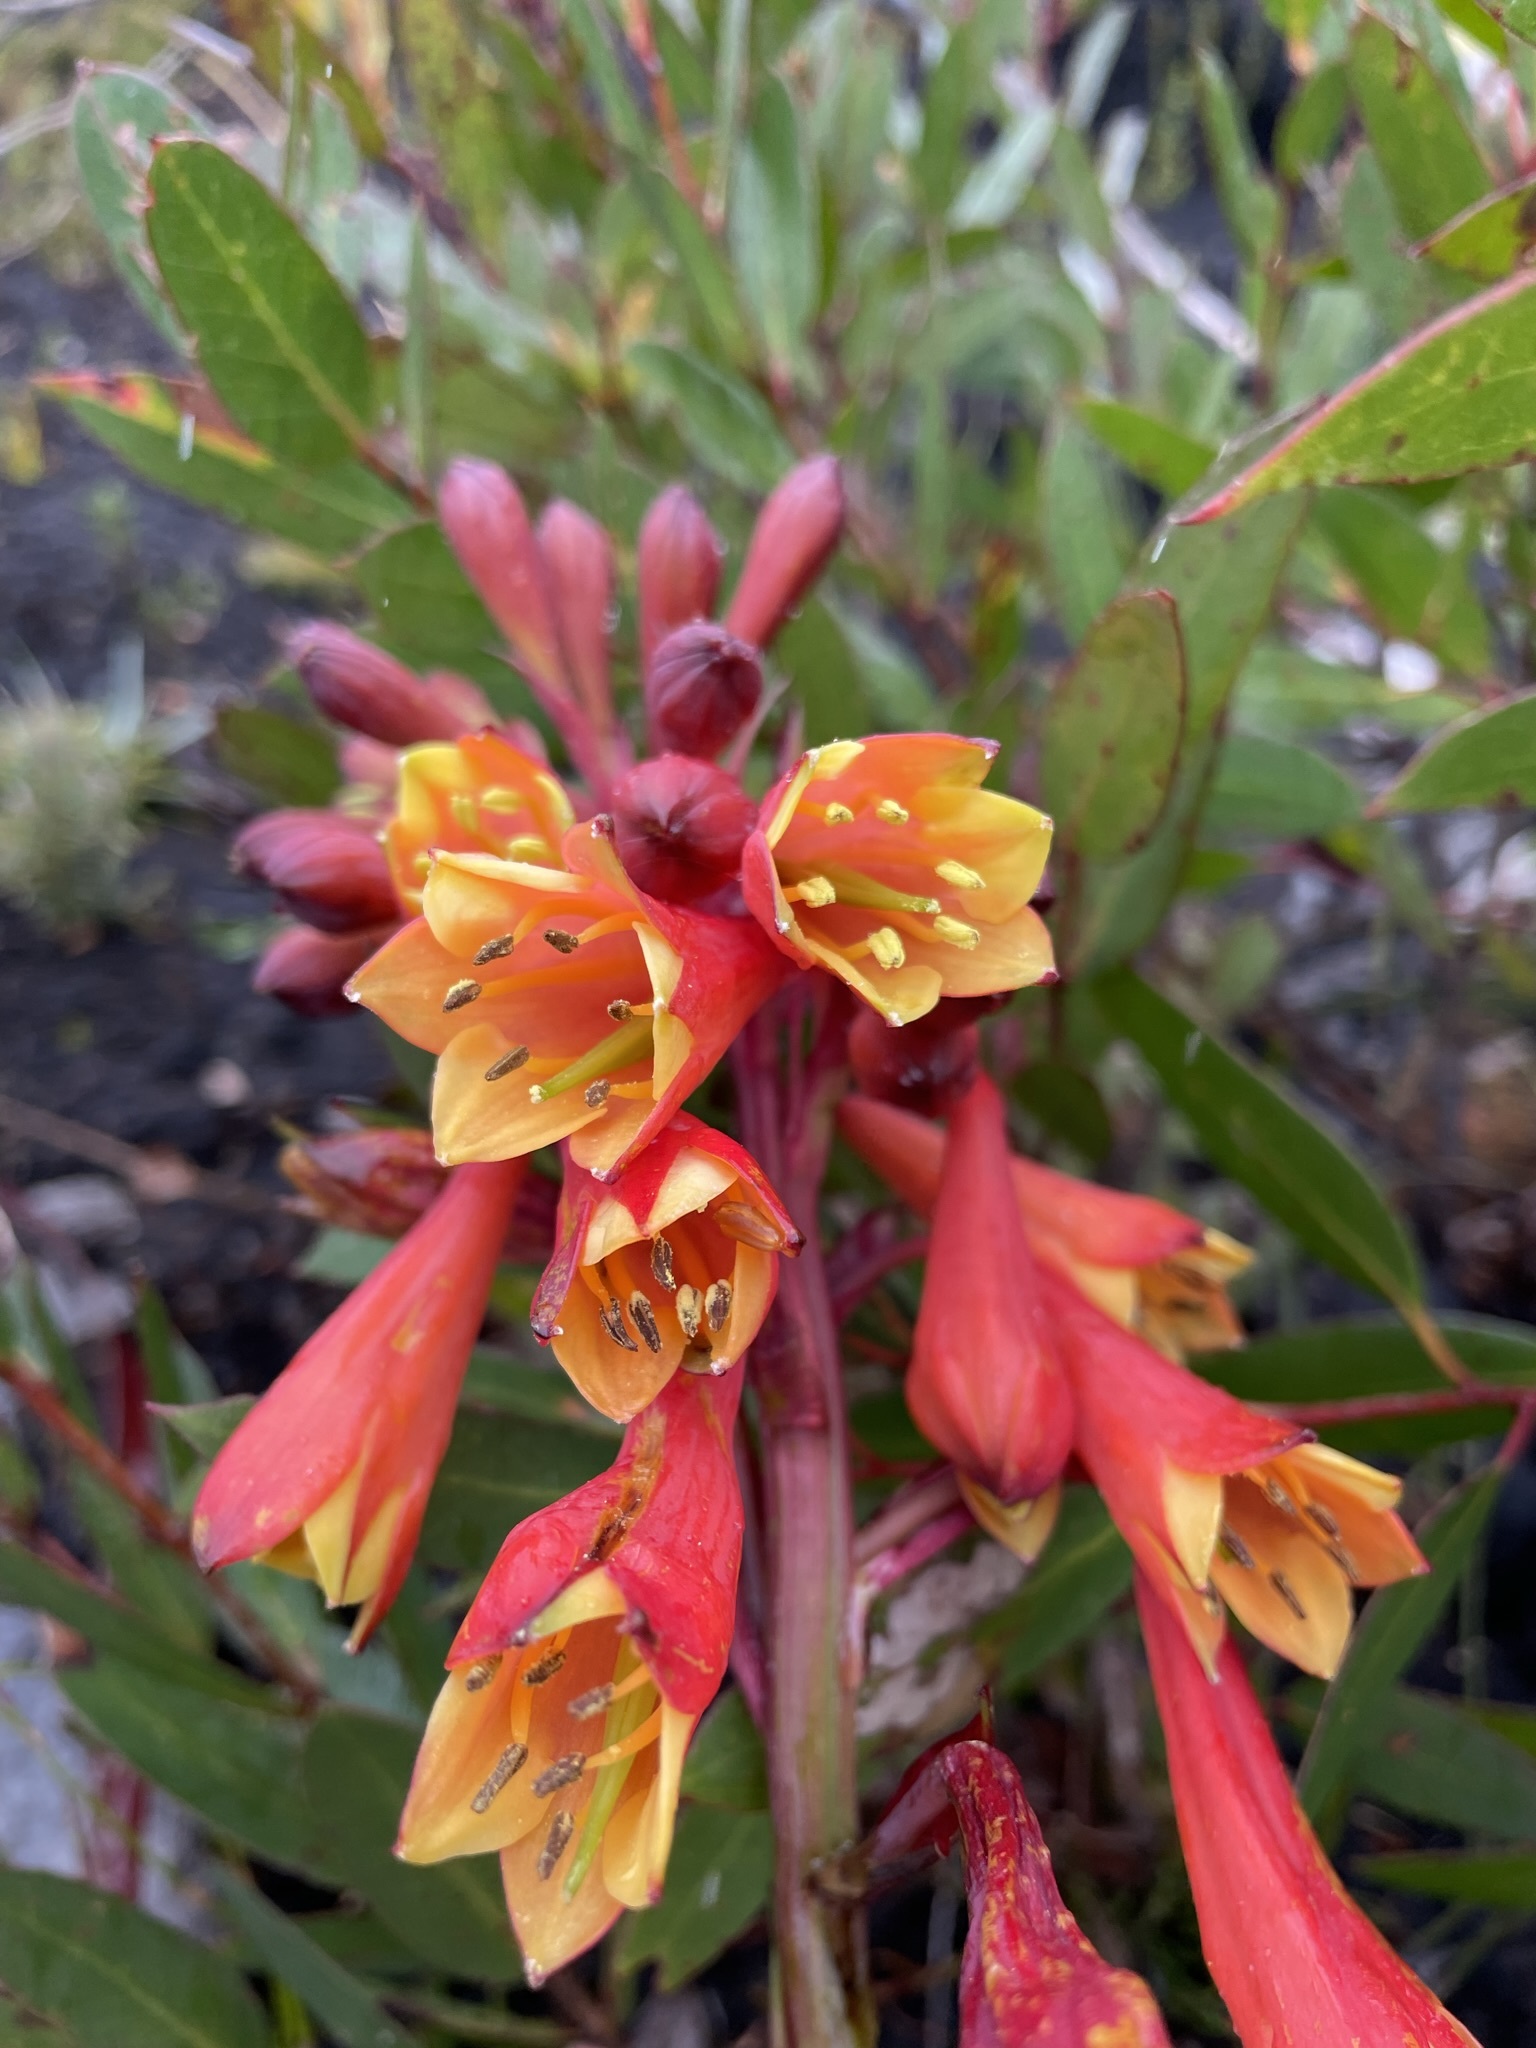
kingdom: Plantae
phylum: Tracheophyta
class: Liliopsida
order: Asparagales
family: Blandfordiaceae
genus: Blandfordia
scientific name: Blandfordia punicea
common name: Tasmanian christmas-bell
